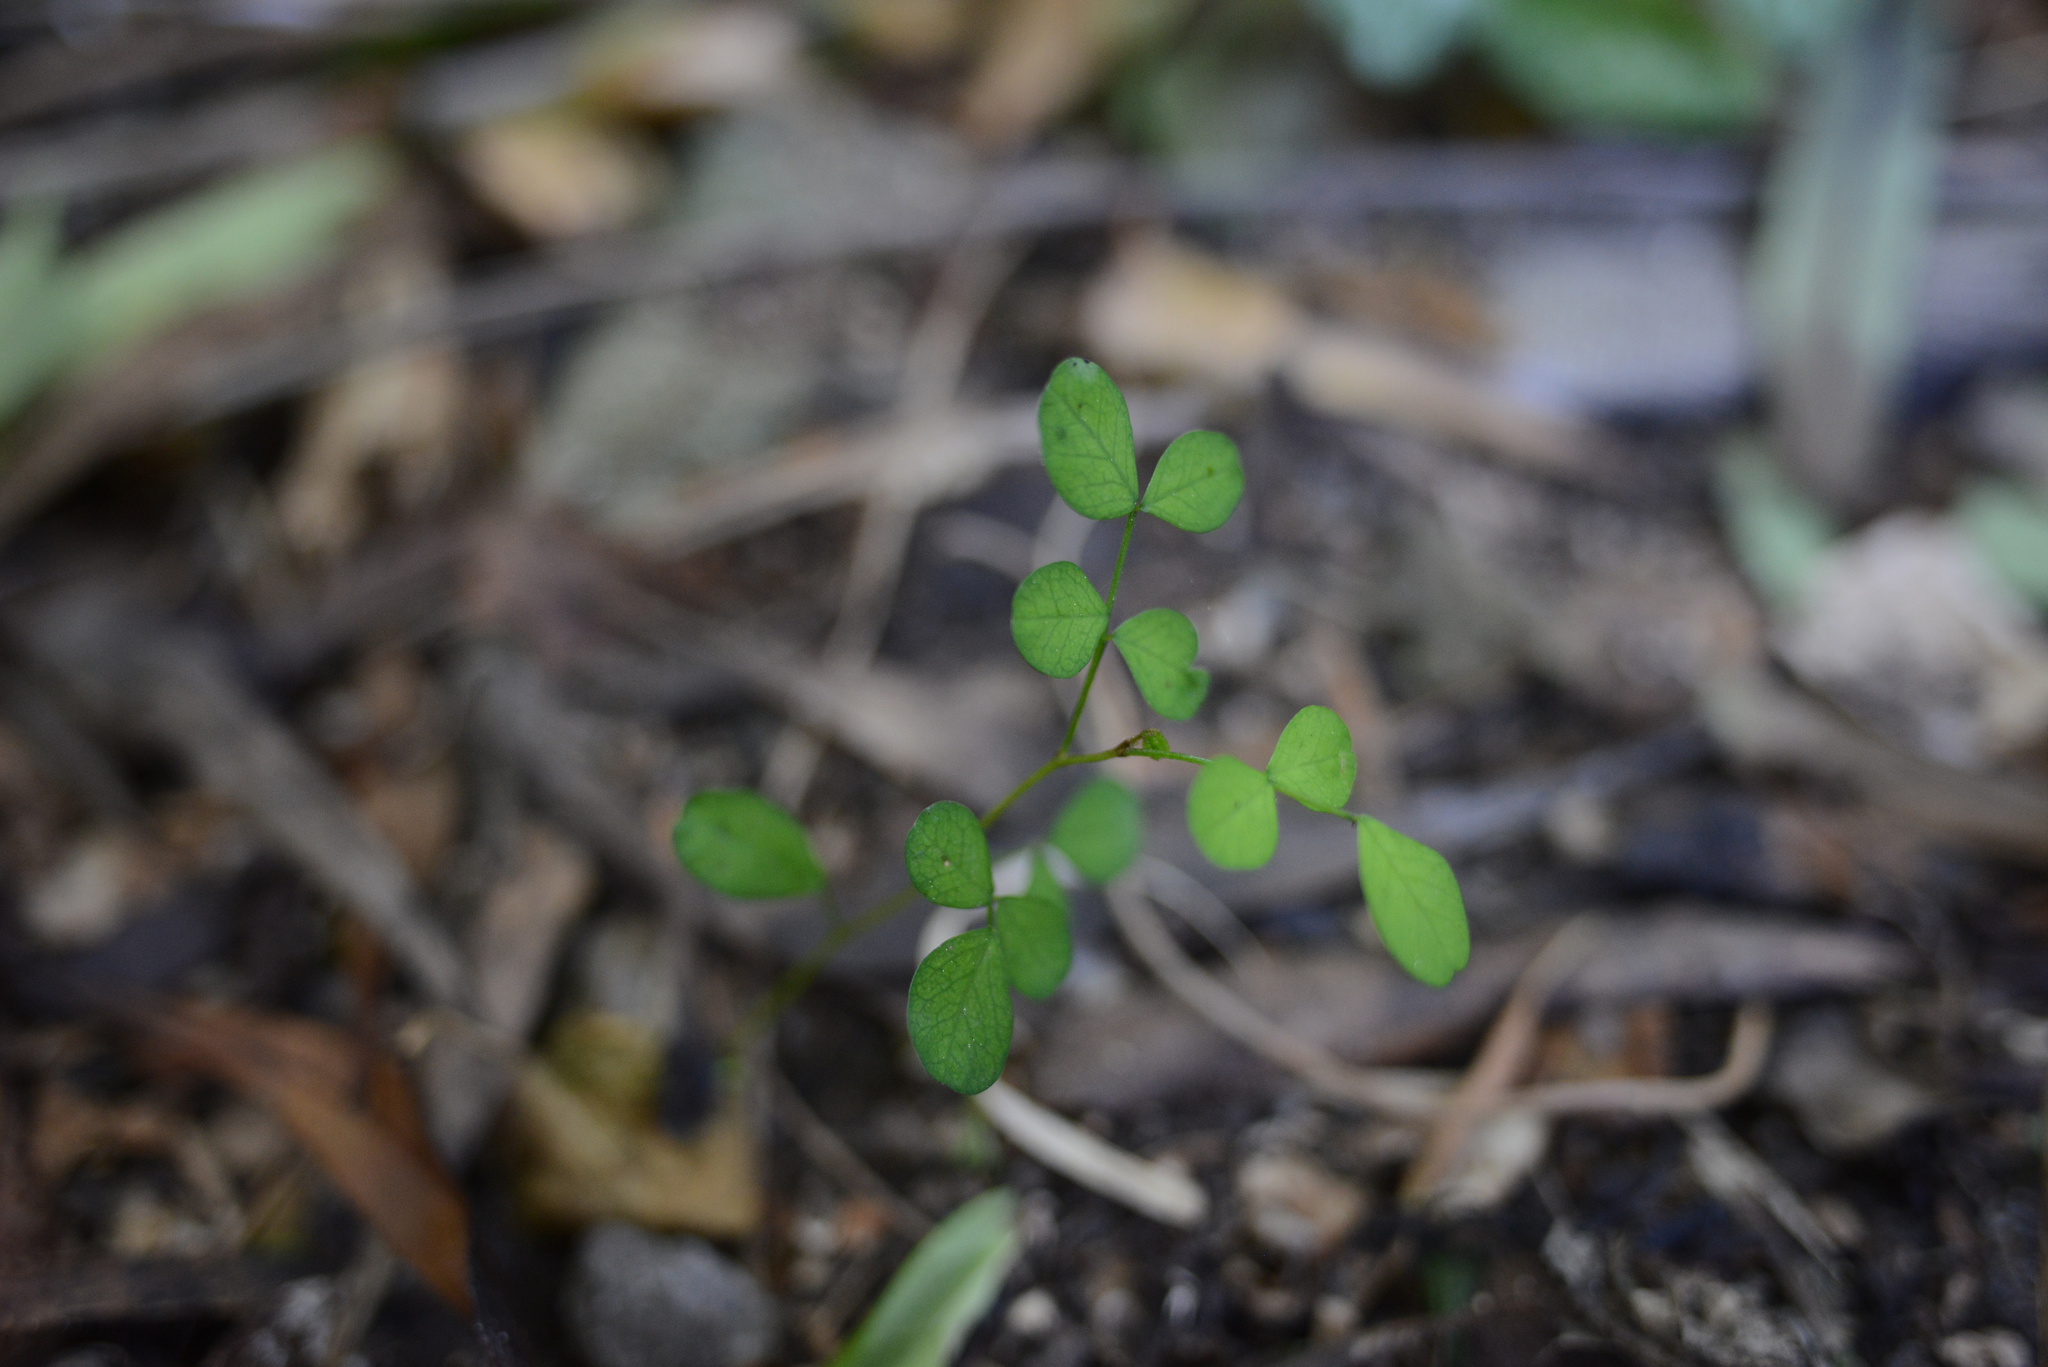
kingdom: Plantae
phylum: Tracheophyta
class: Magnoliopsida
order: Fabales
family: Fabaceae
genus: Sophora
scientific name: Sophora microphylla
